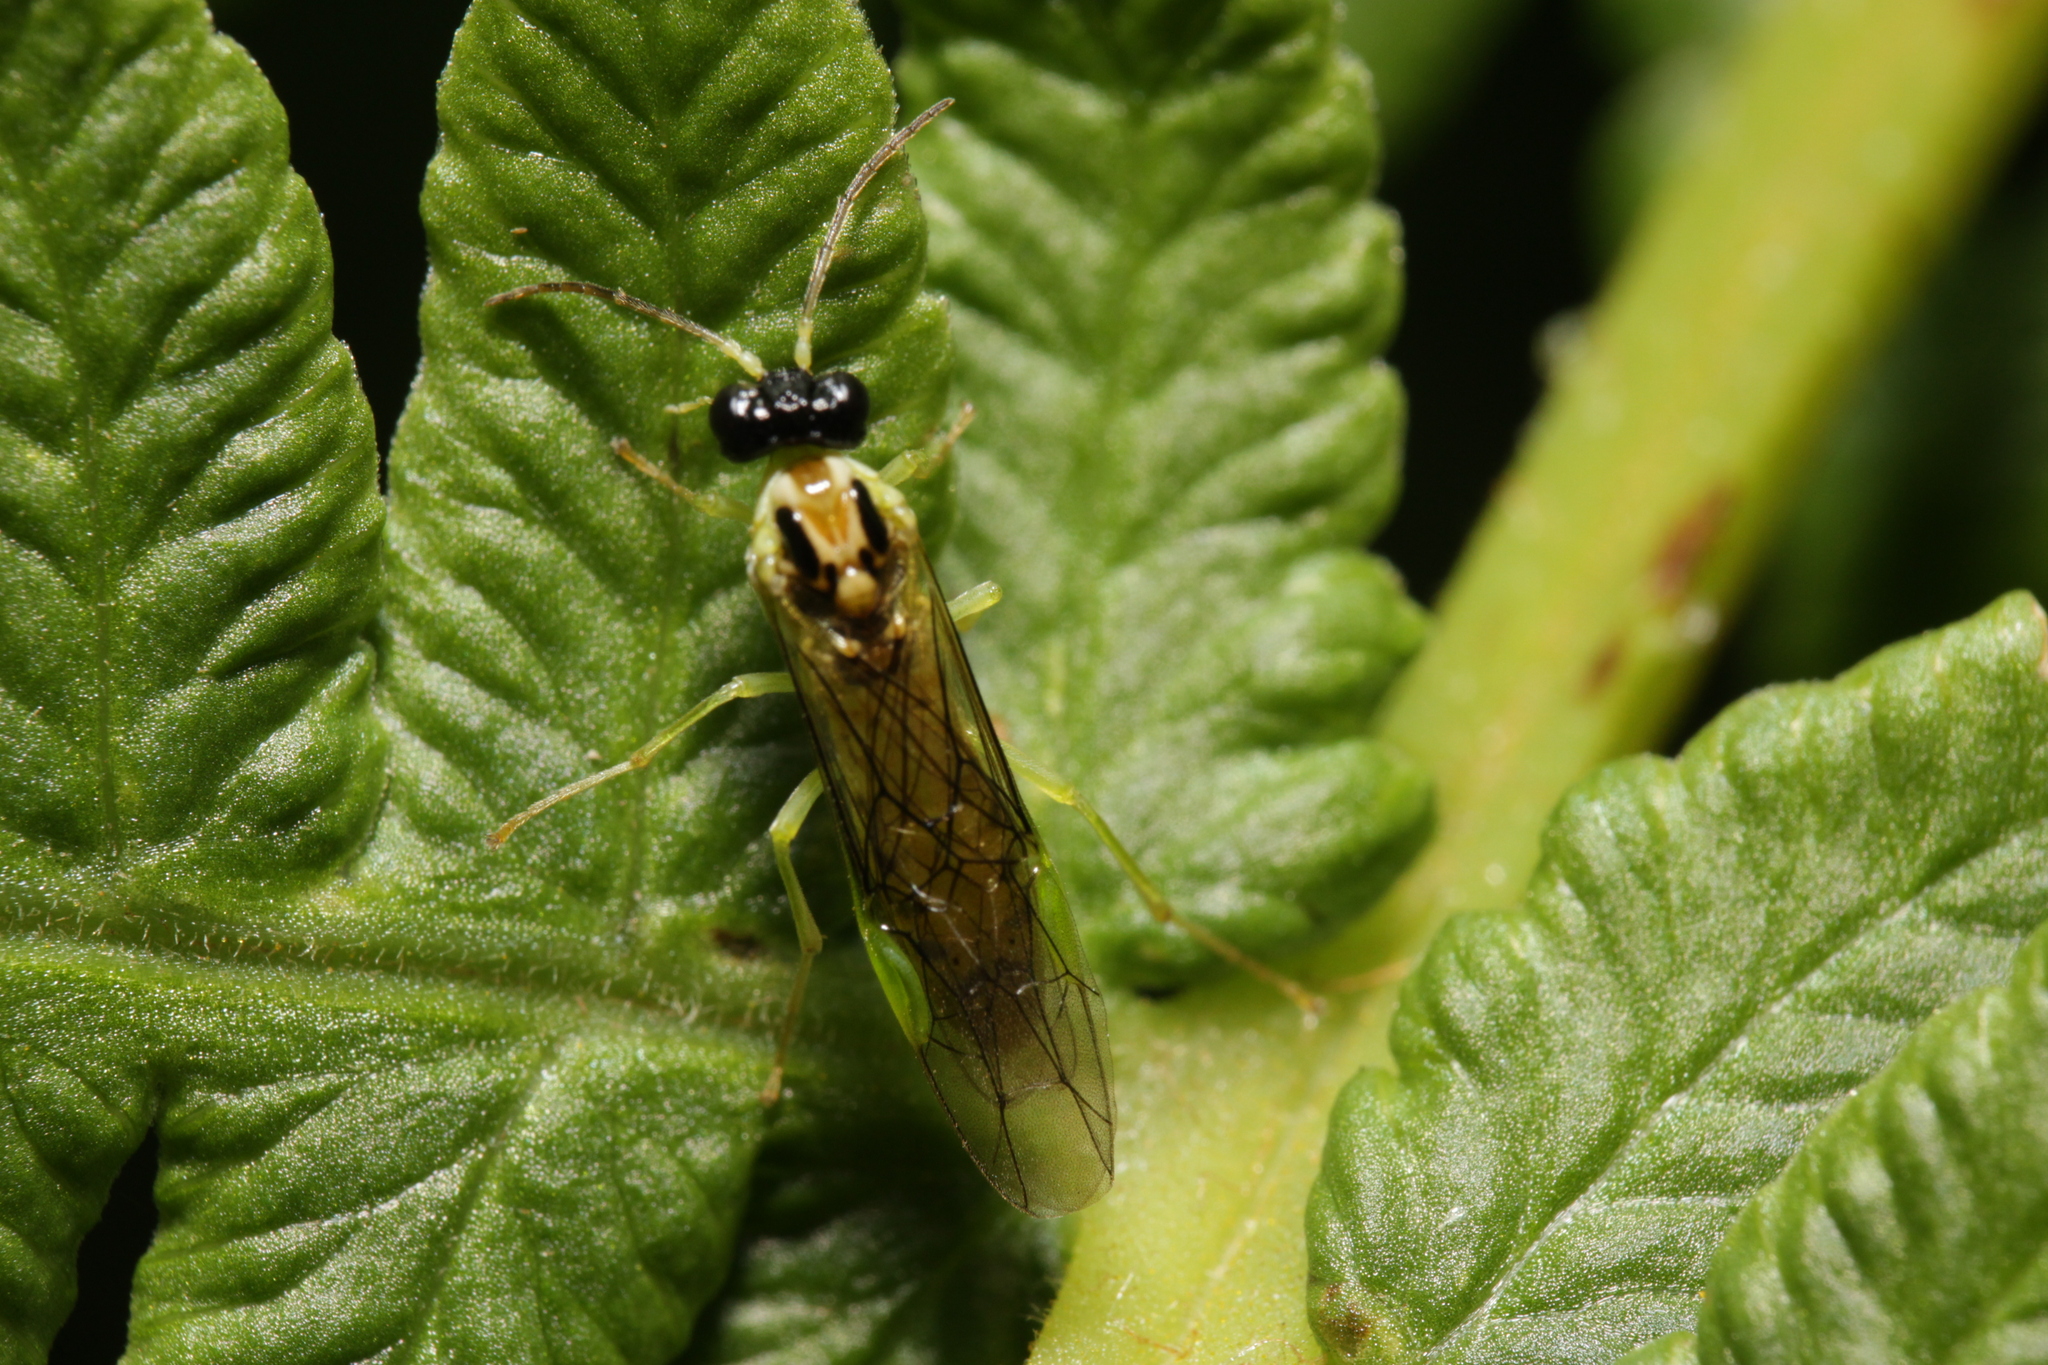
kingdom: Animalia
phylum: Arthropoda
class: Insecta
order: Hymenoptera
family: Tenthredinidae
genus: Stromboceros
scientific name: Stromboceros delicatulus
